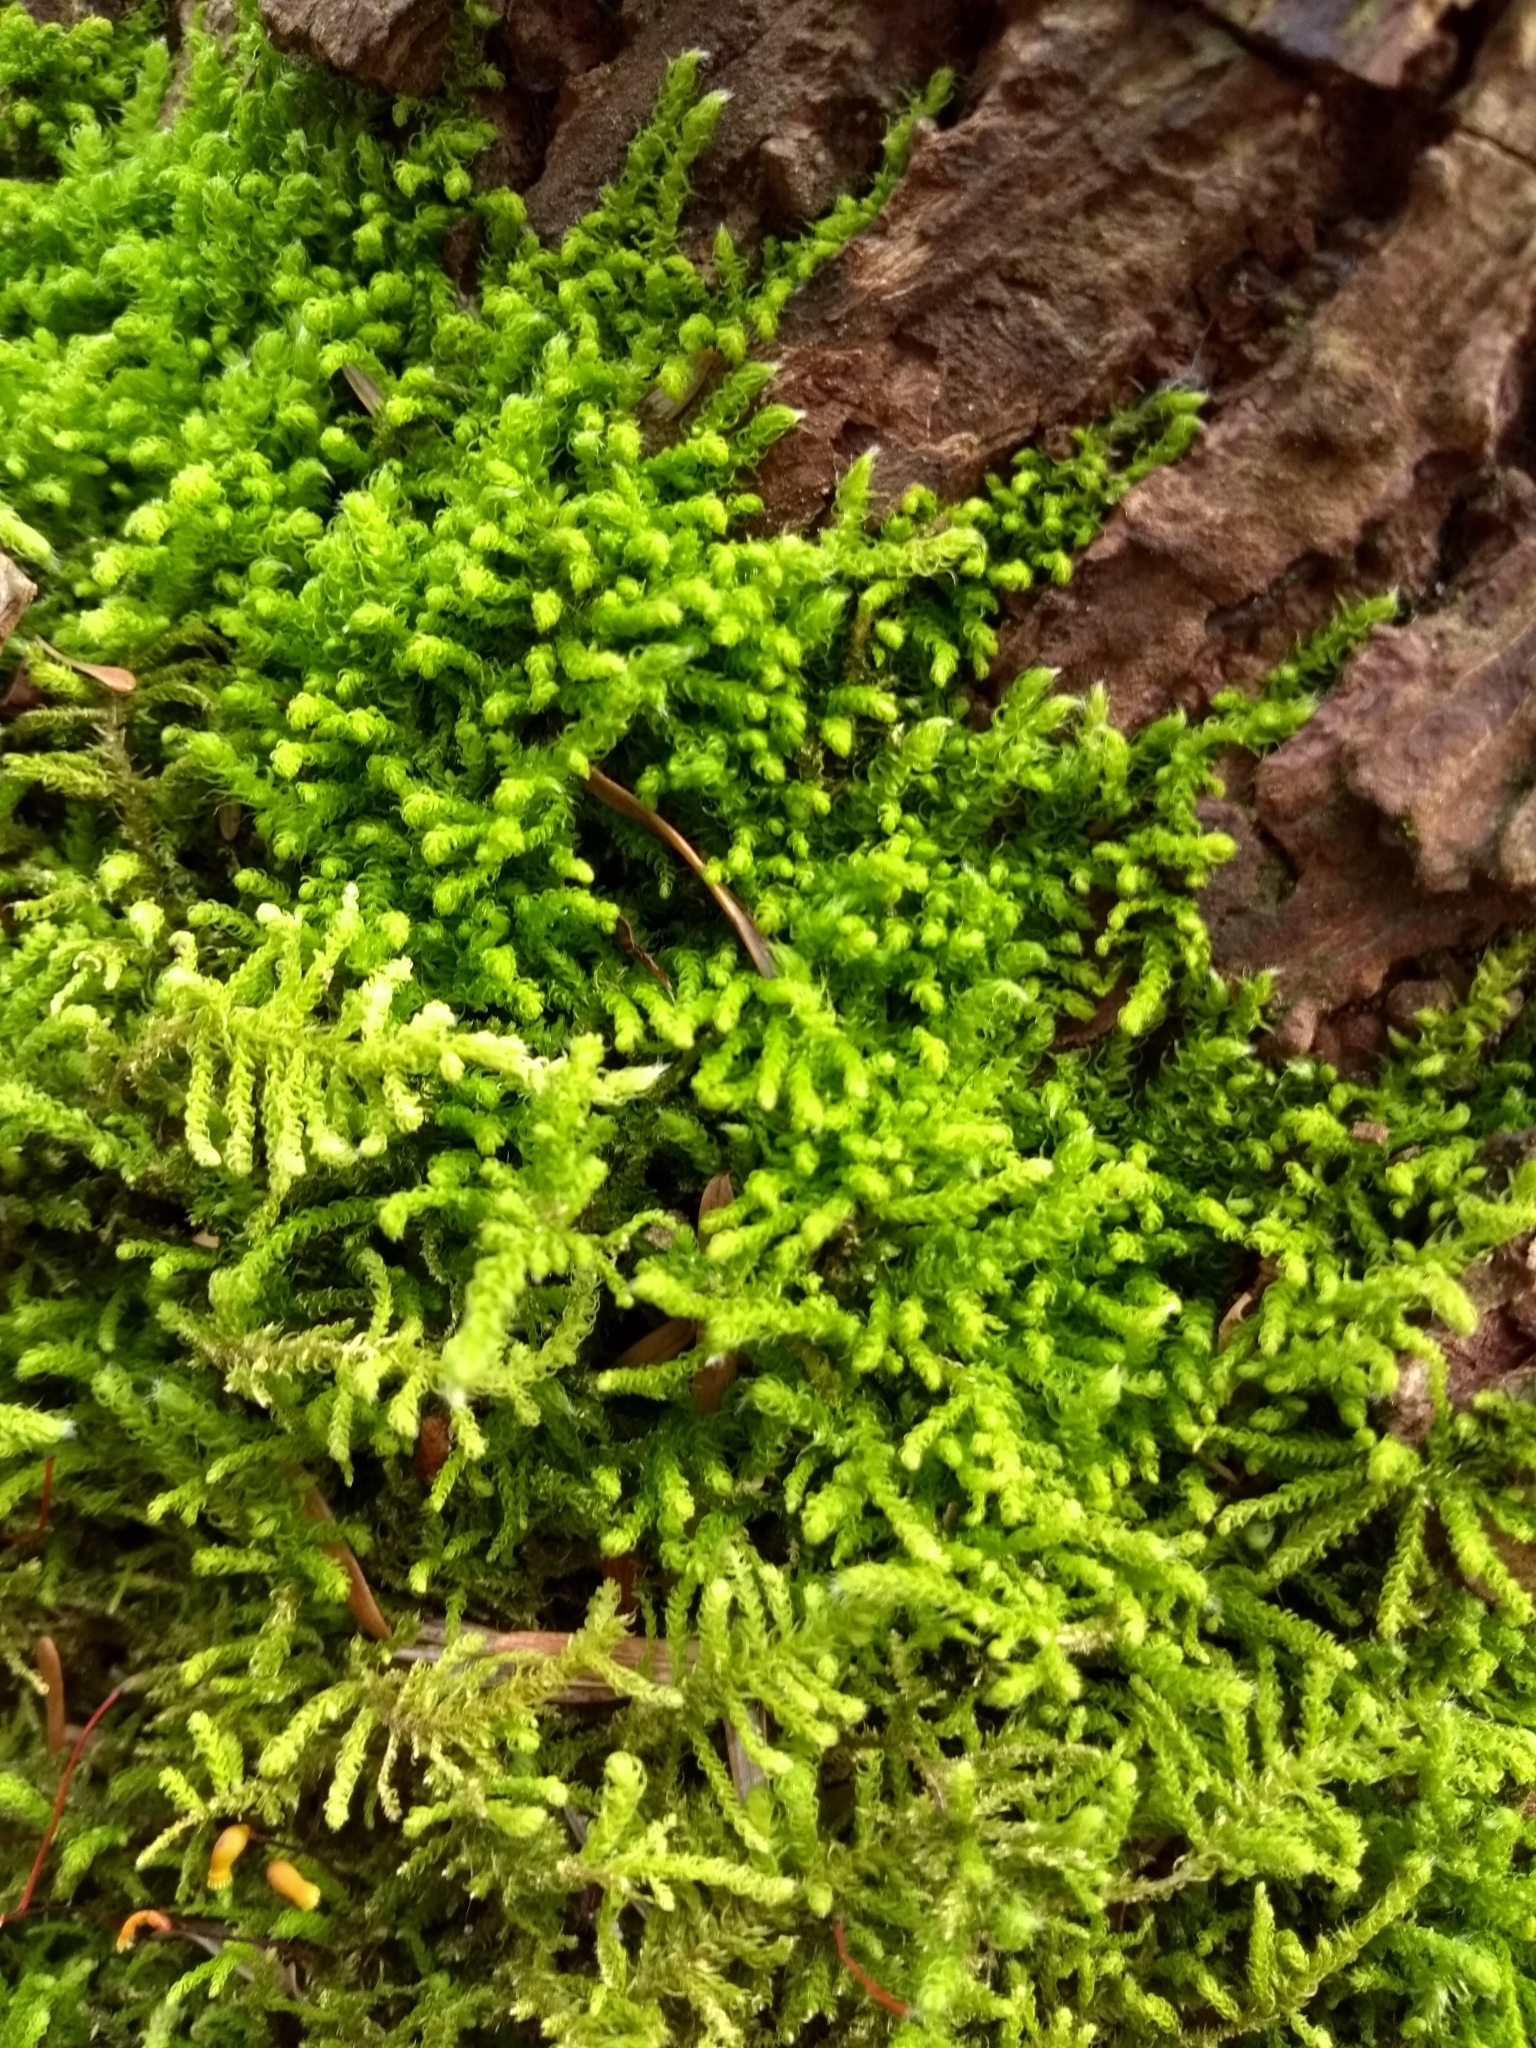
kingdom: Plantae
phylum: Bryophyta
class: Bryopsida
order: Hypnales
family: Brachytheciaceae
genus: Claopodium
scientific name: Claopodium crispifolium
